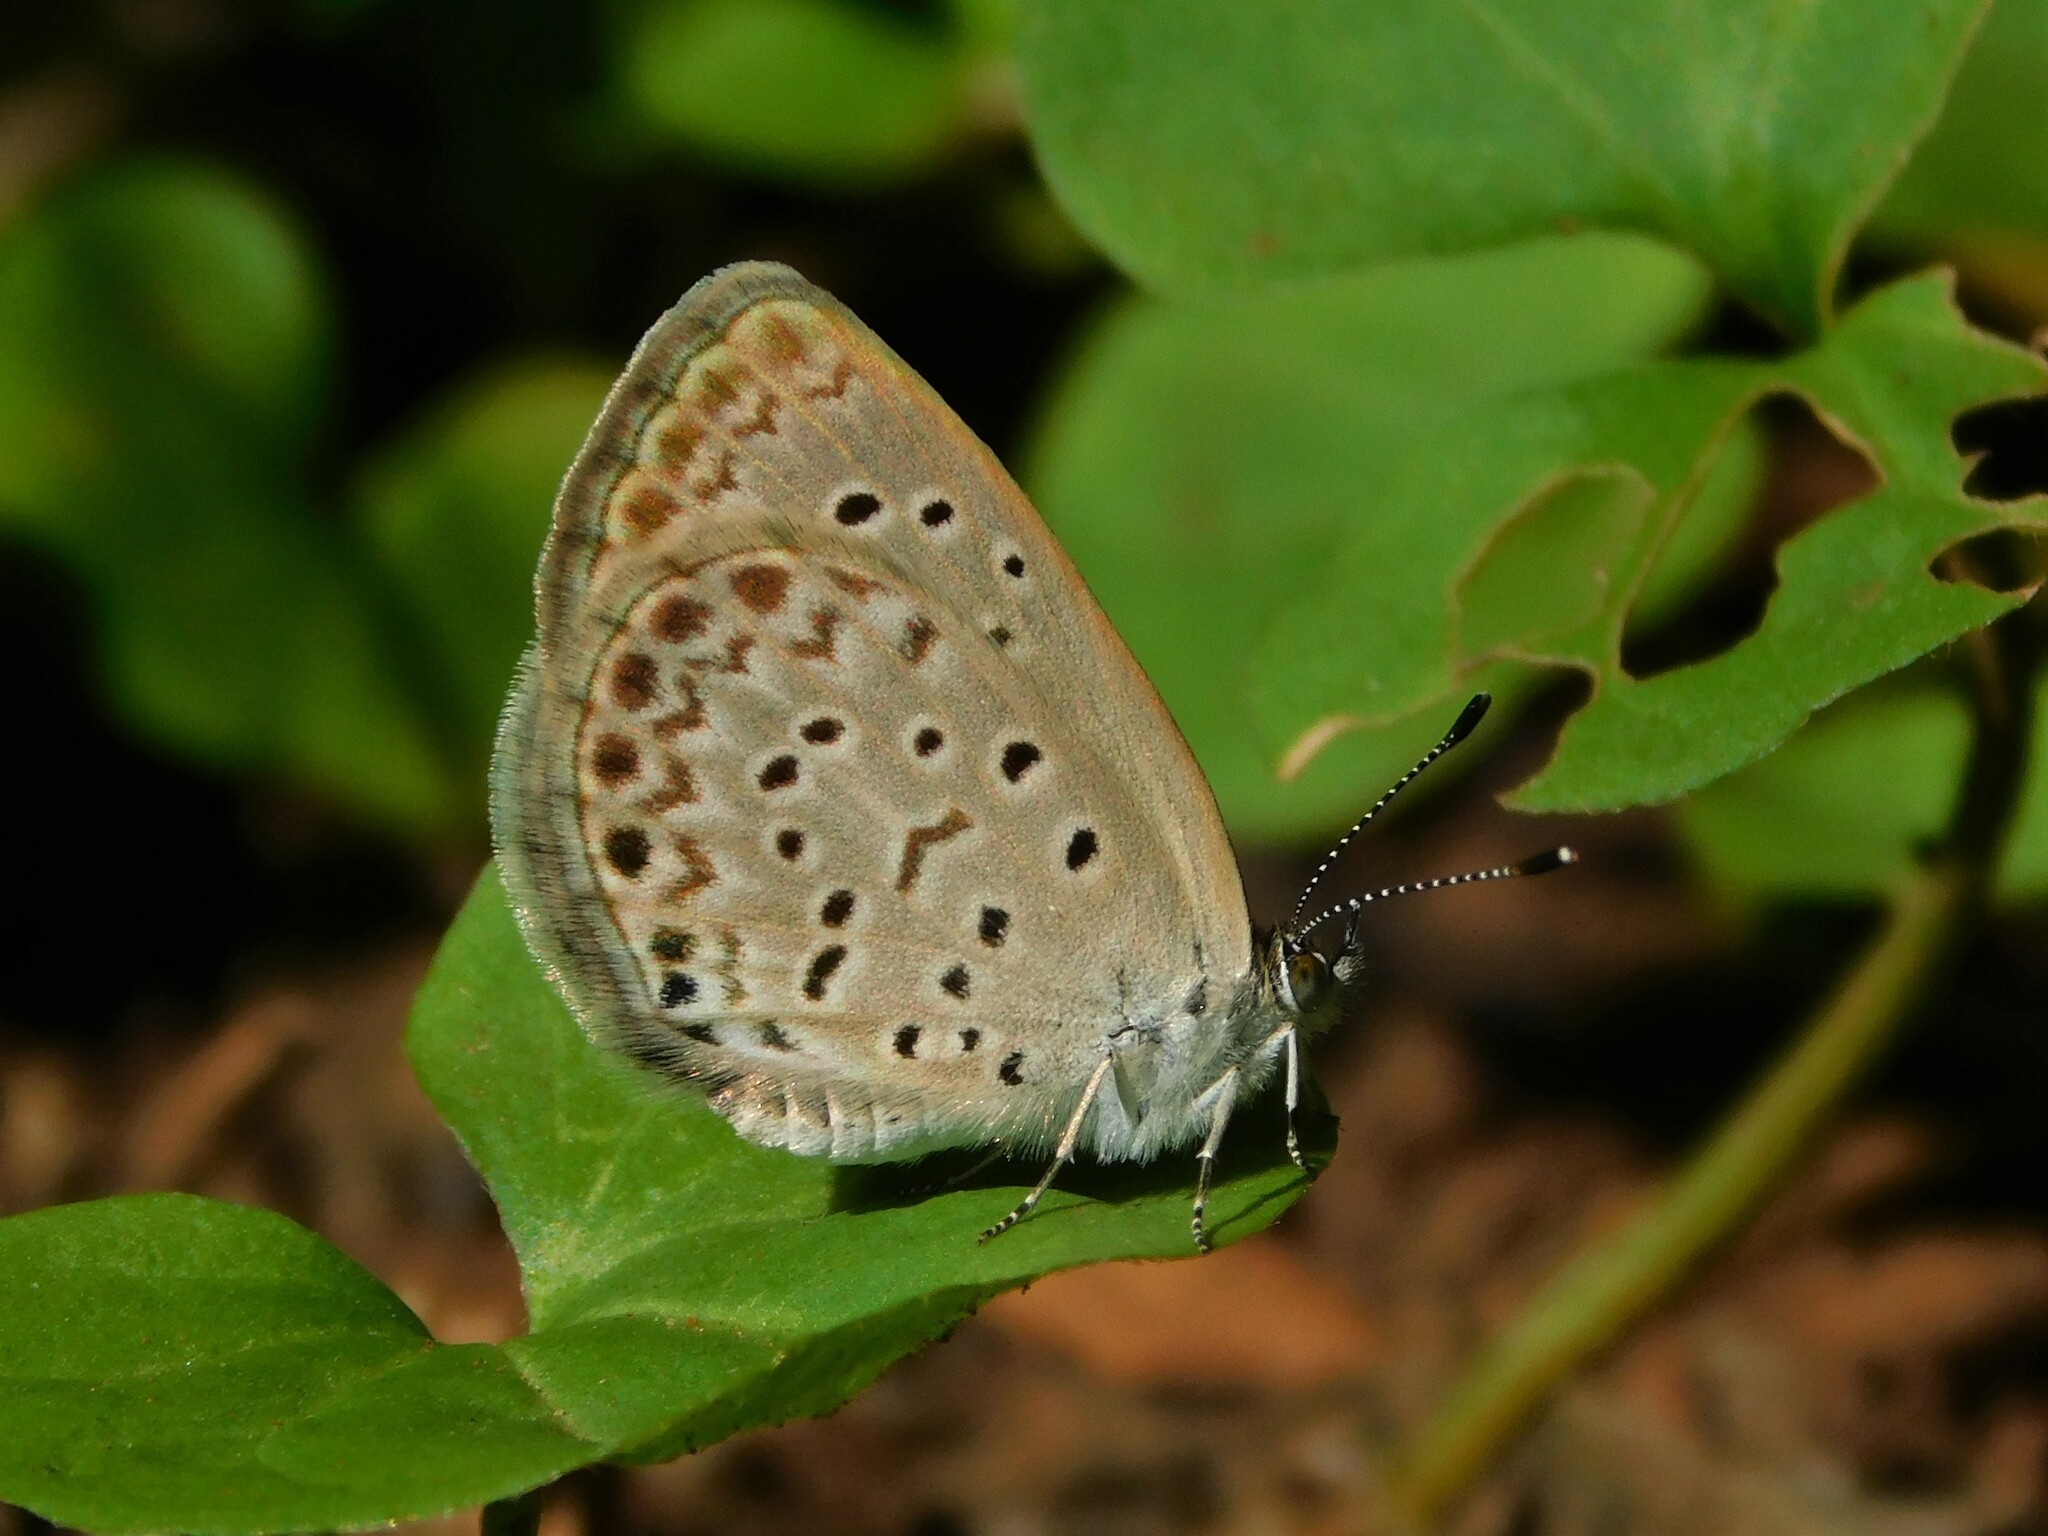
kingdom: Animalia
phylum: Arthropoda
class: Insecta
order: Lepidoptera
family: Lycaenidae
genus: Zizeeria
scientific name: Zizeeria knysna
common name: African grass blue
